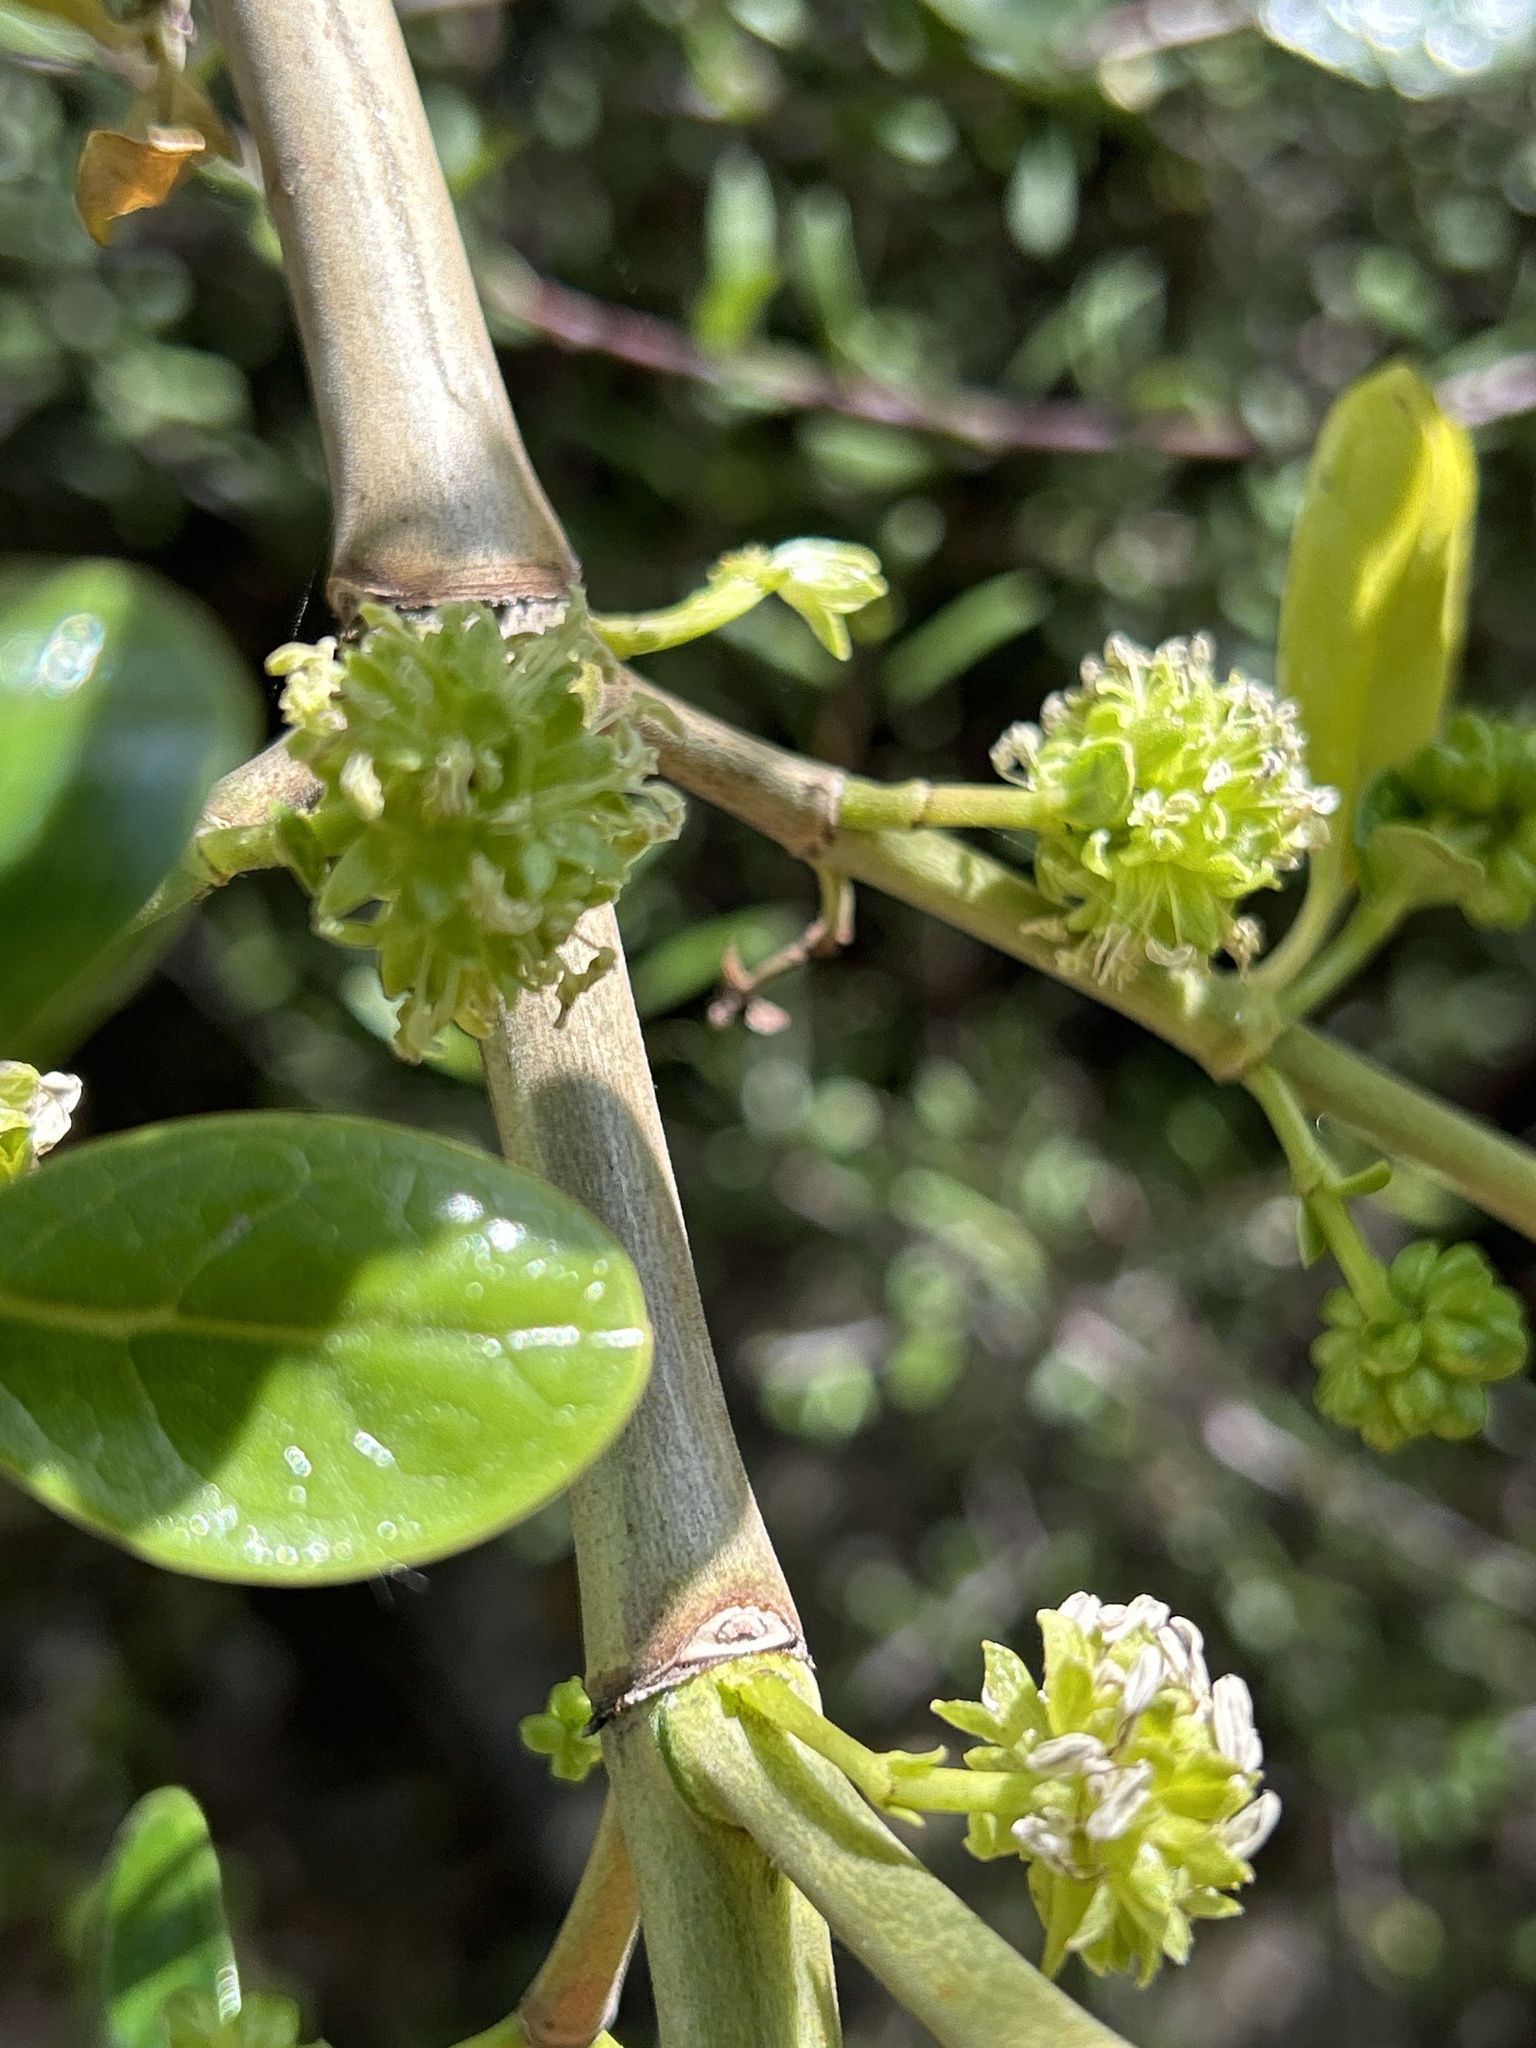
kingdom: Plantae
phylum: Tracheophyta
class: Magnoliopsida
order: Gentianales
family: Rubiaceae
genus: Coprosma
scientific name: Coprosma repens
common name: Tree bedstraw
